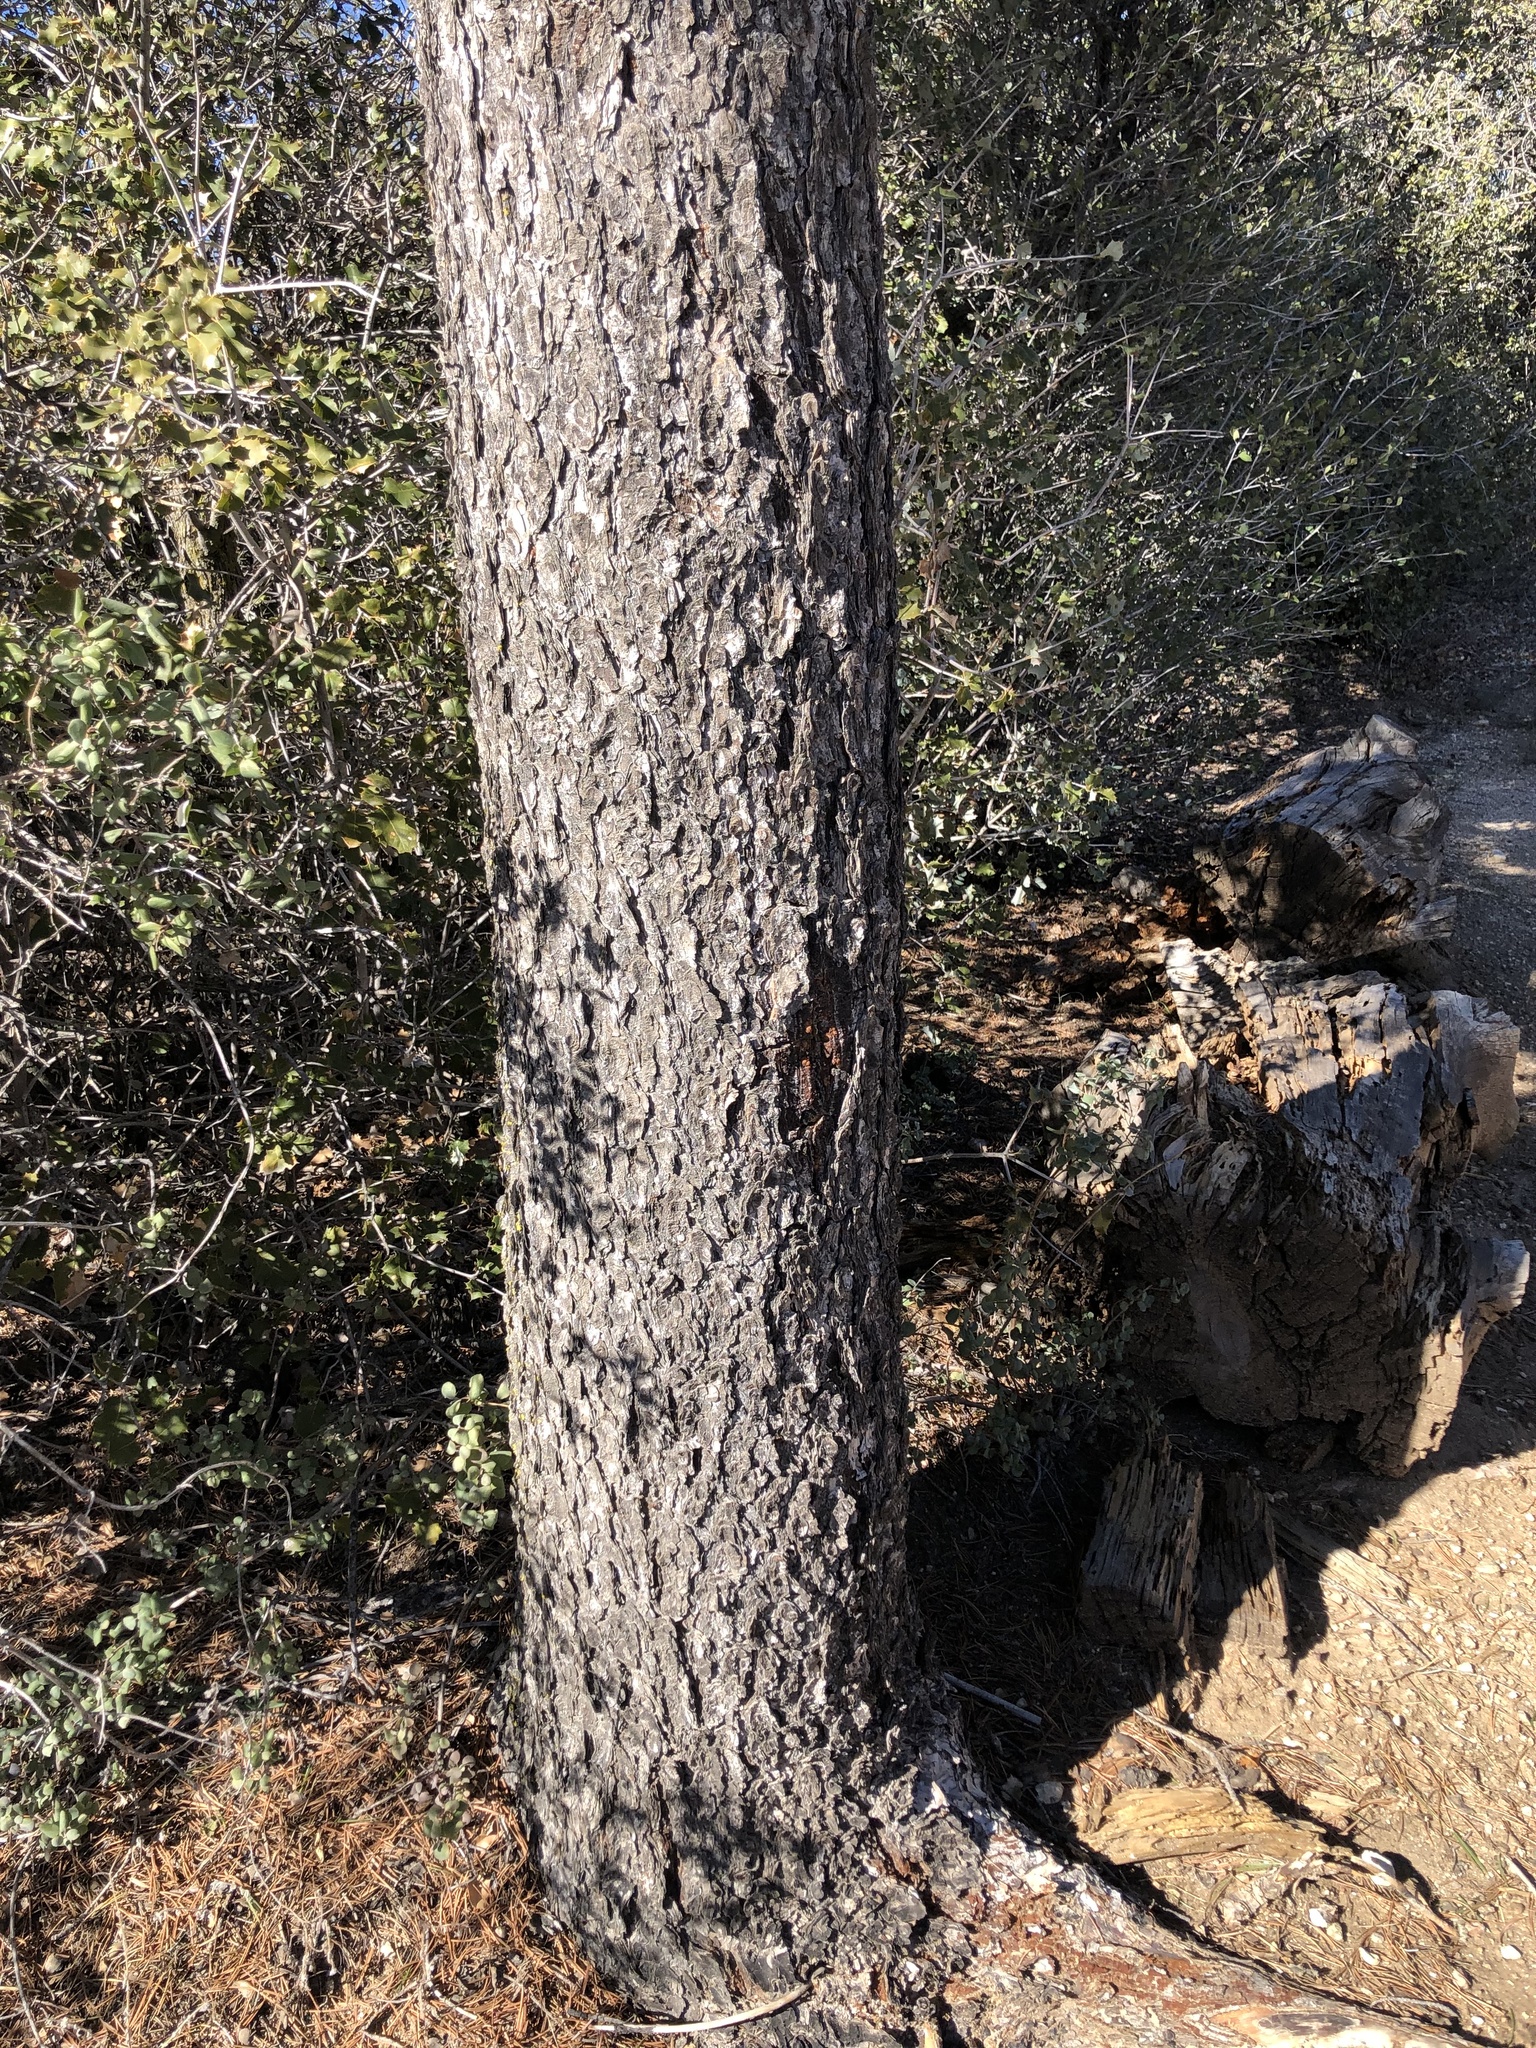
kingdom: Plantae
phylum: Tracheophyta
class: Pinopsida
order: Pinales
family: Pinaceae
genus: Pinus
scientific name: Pinus quadrifolia
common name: Parry pinyon
